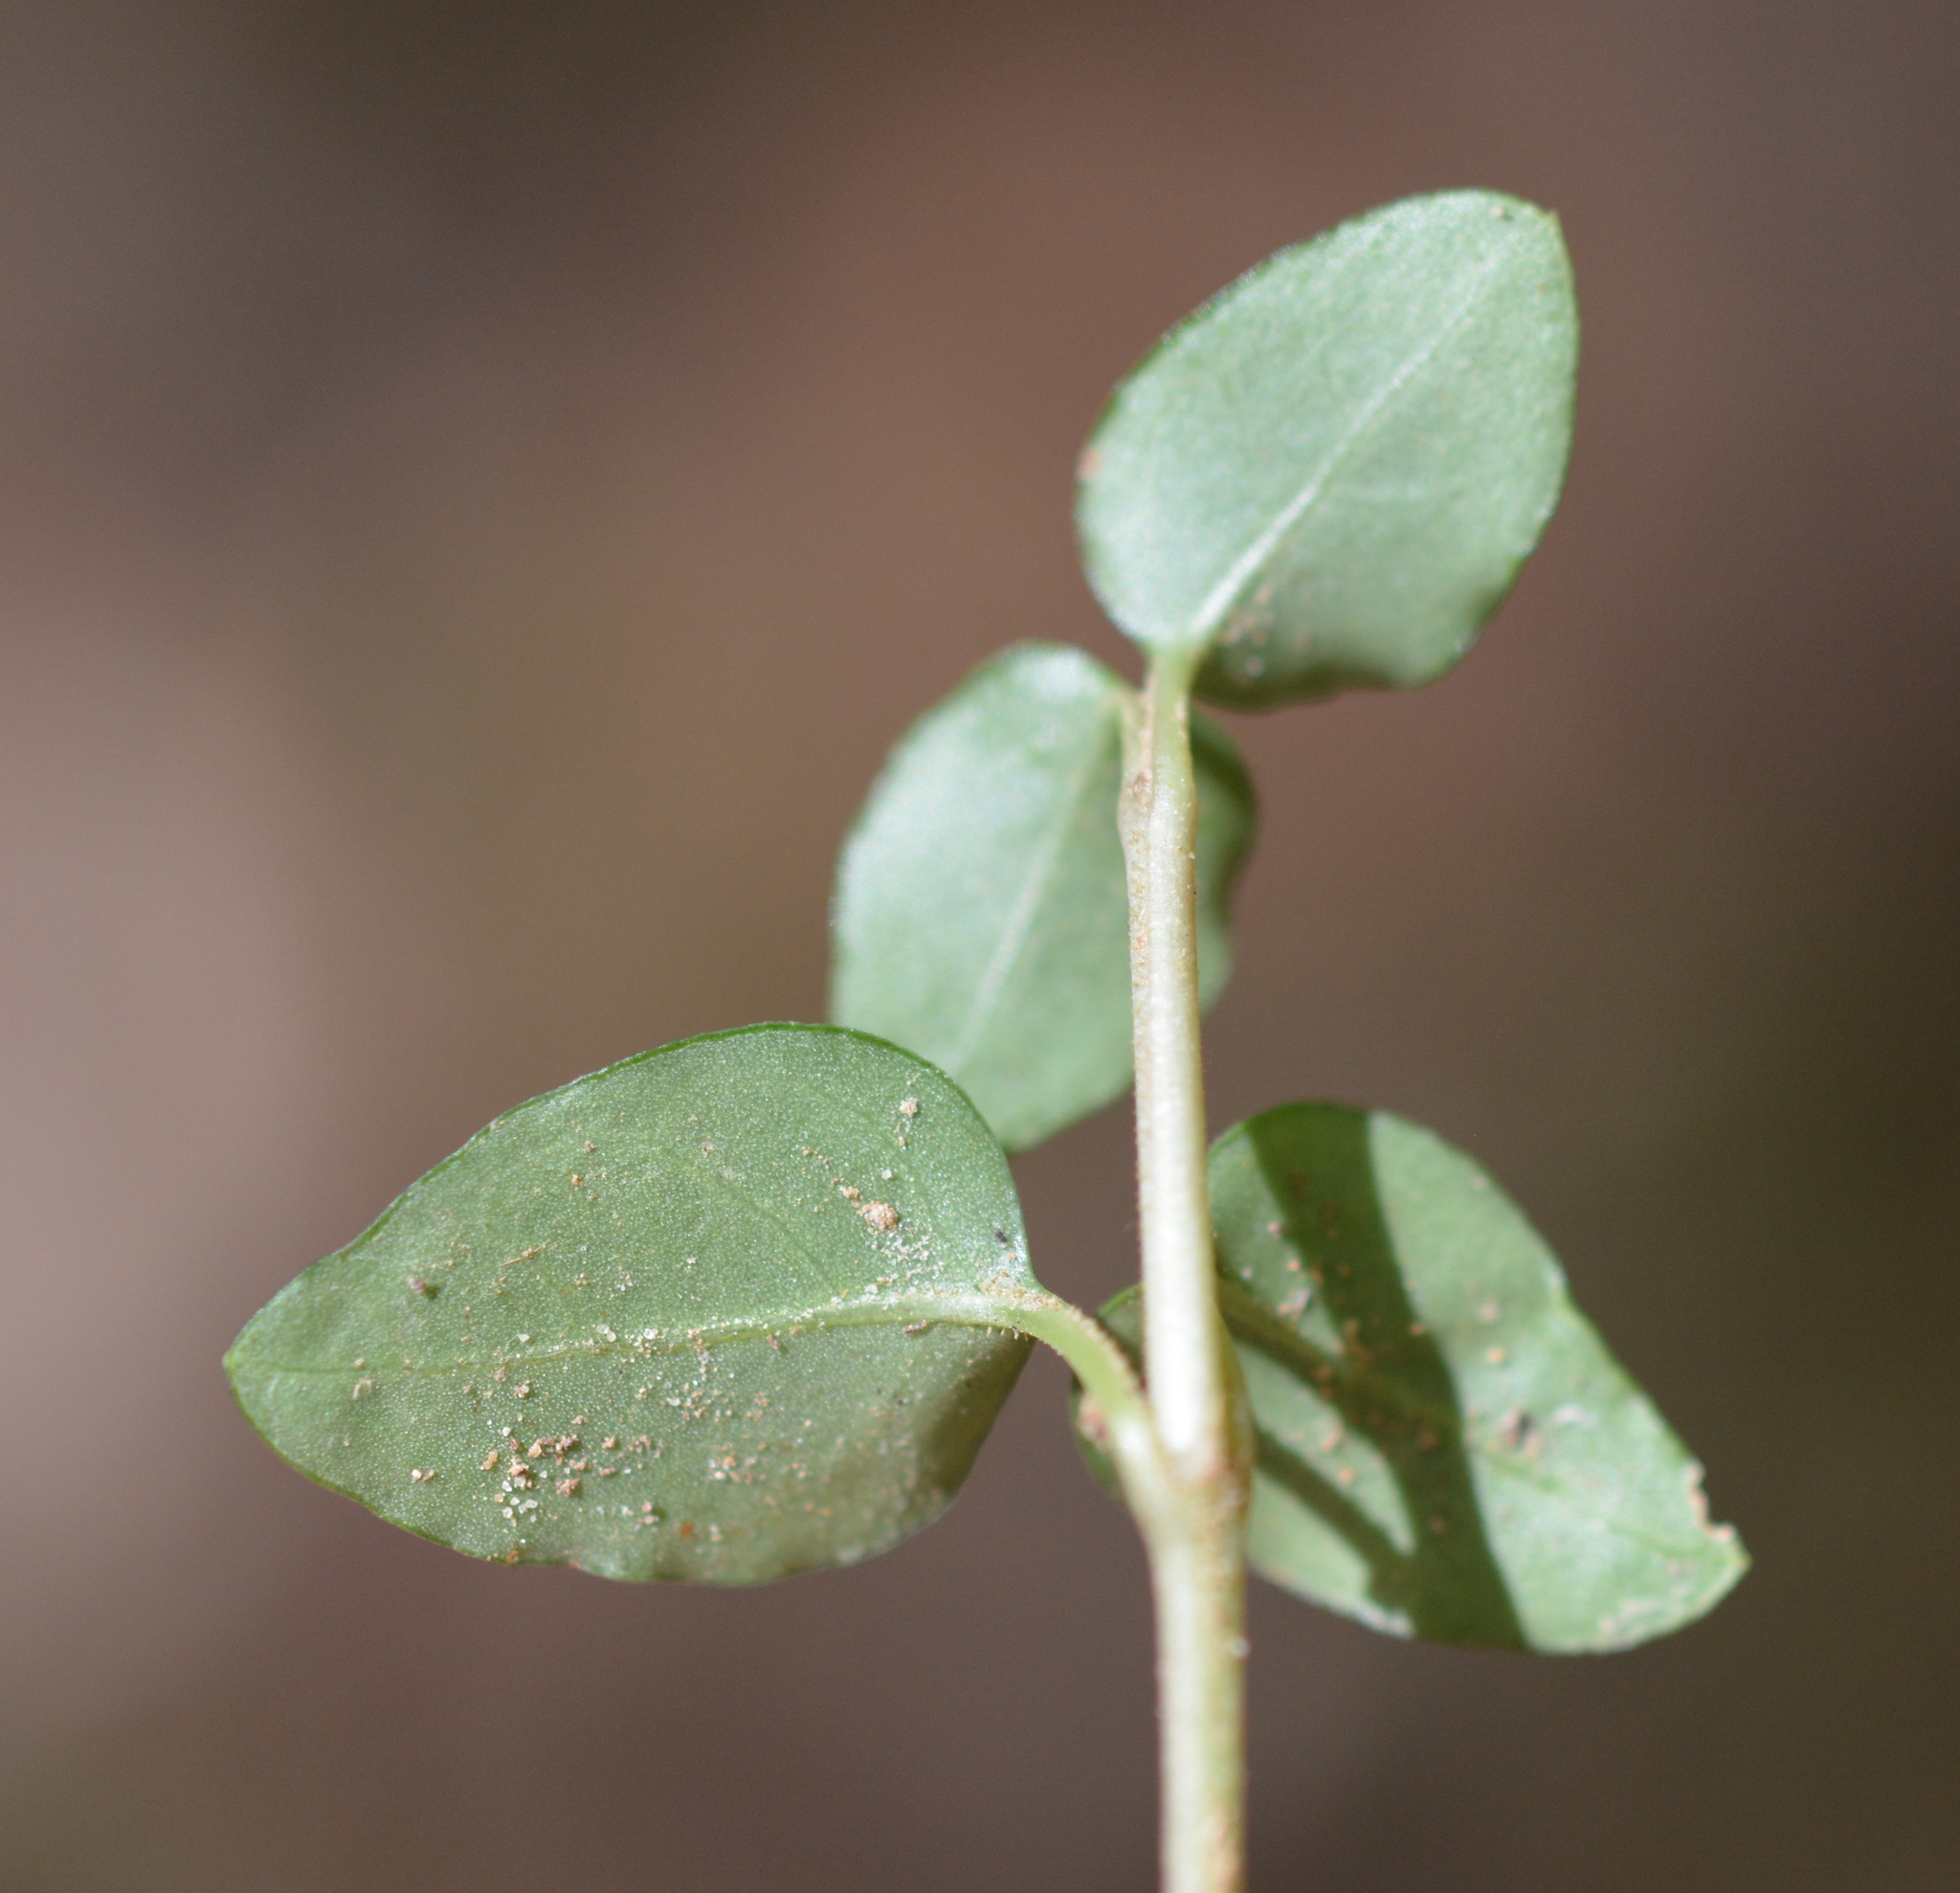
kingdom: Plantae
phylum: Tracheophyta
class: Magnoliopsida
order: Gentianales
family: Rubiaceae
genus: Mitchella
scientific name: Mitchella repens
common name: Partridge-berry
